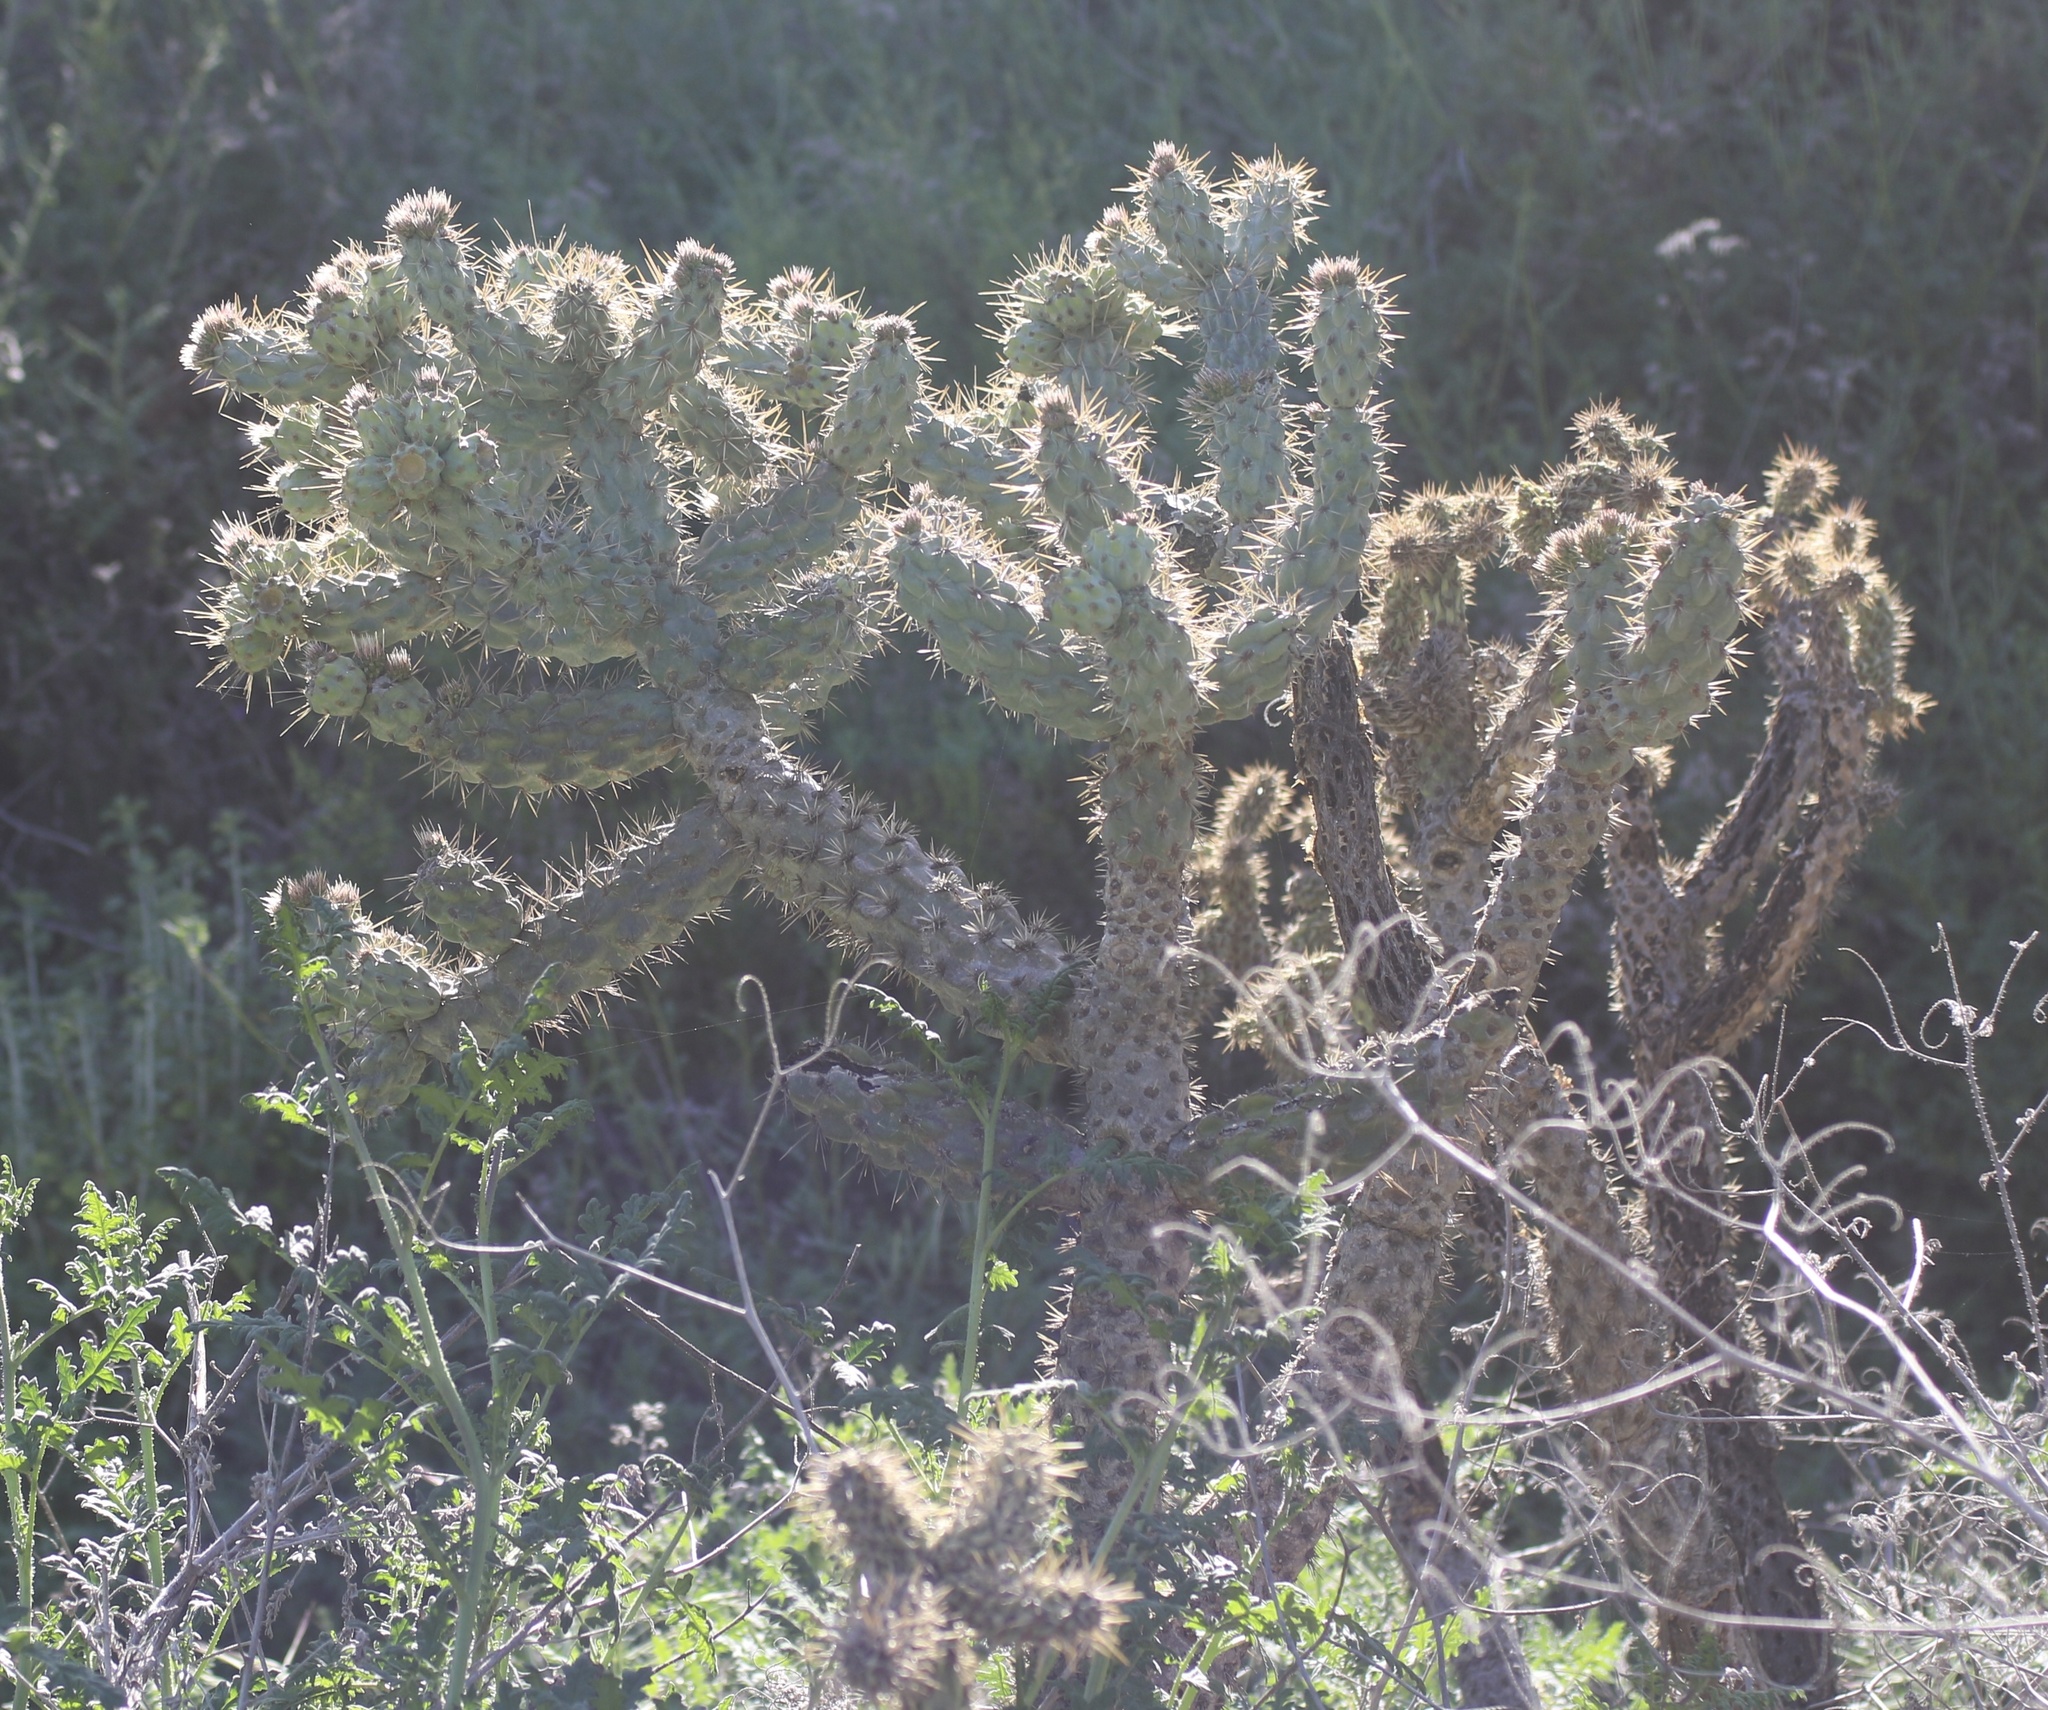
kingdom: Plantae
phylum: Tracheophyta
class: Magnoliopsida
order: Caryophyllales
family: Cactaceae
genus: Cylindropuntia
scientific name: Cylindropuntia prolifera
